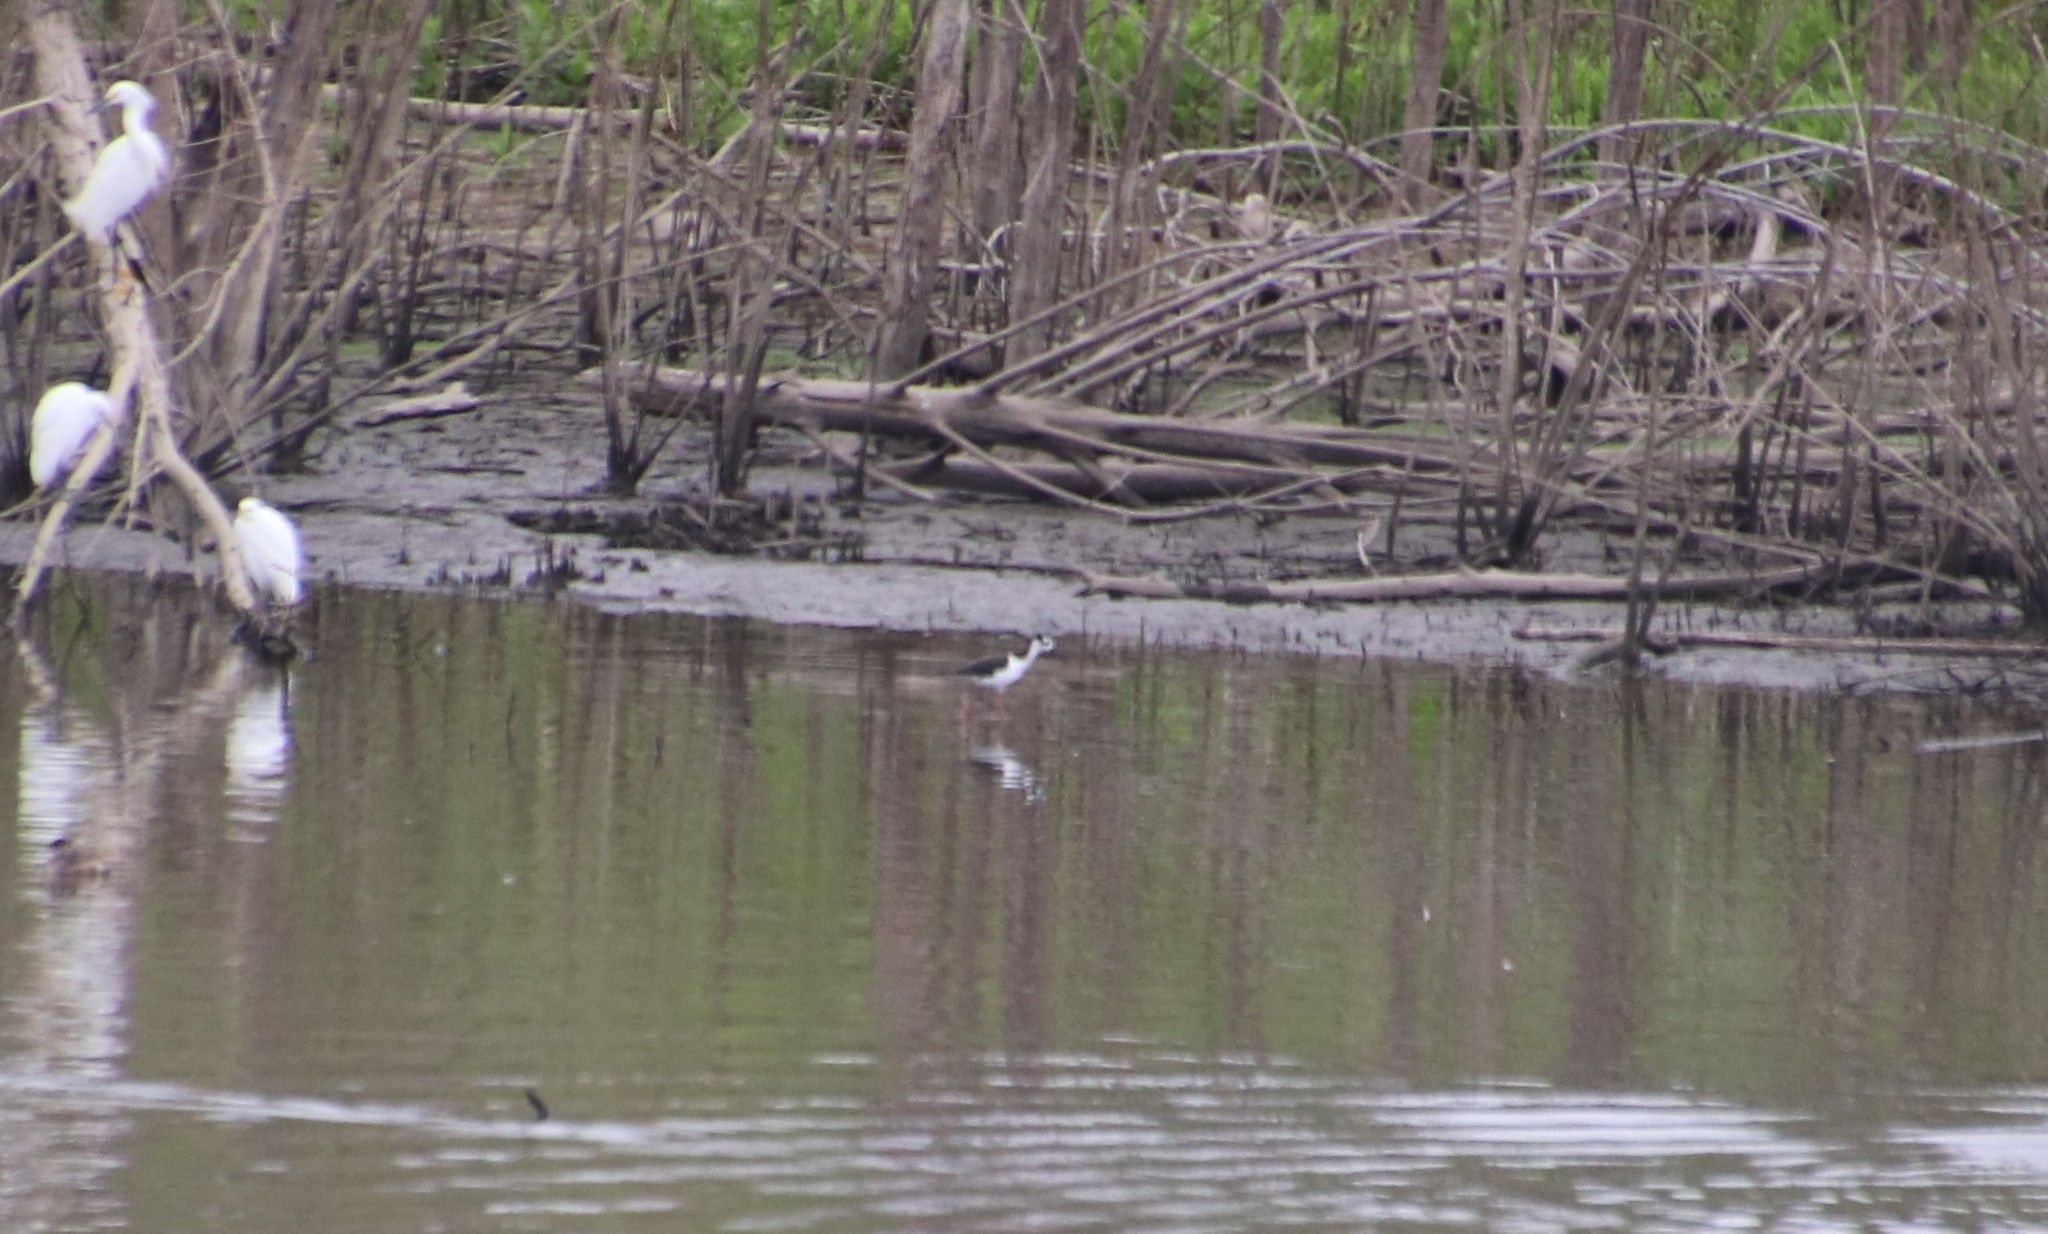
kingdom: Animalia
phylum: Chordata
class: Aves
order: Charadriiformes
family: Recurvirostridae
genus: Himantopus
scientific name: Himantopus mexicanus
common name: Black-necked stilt
